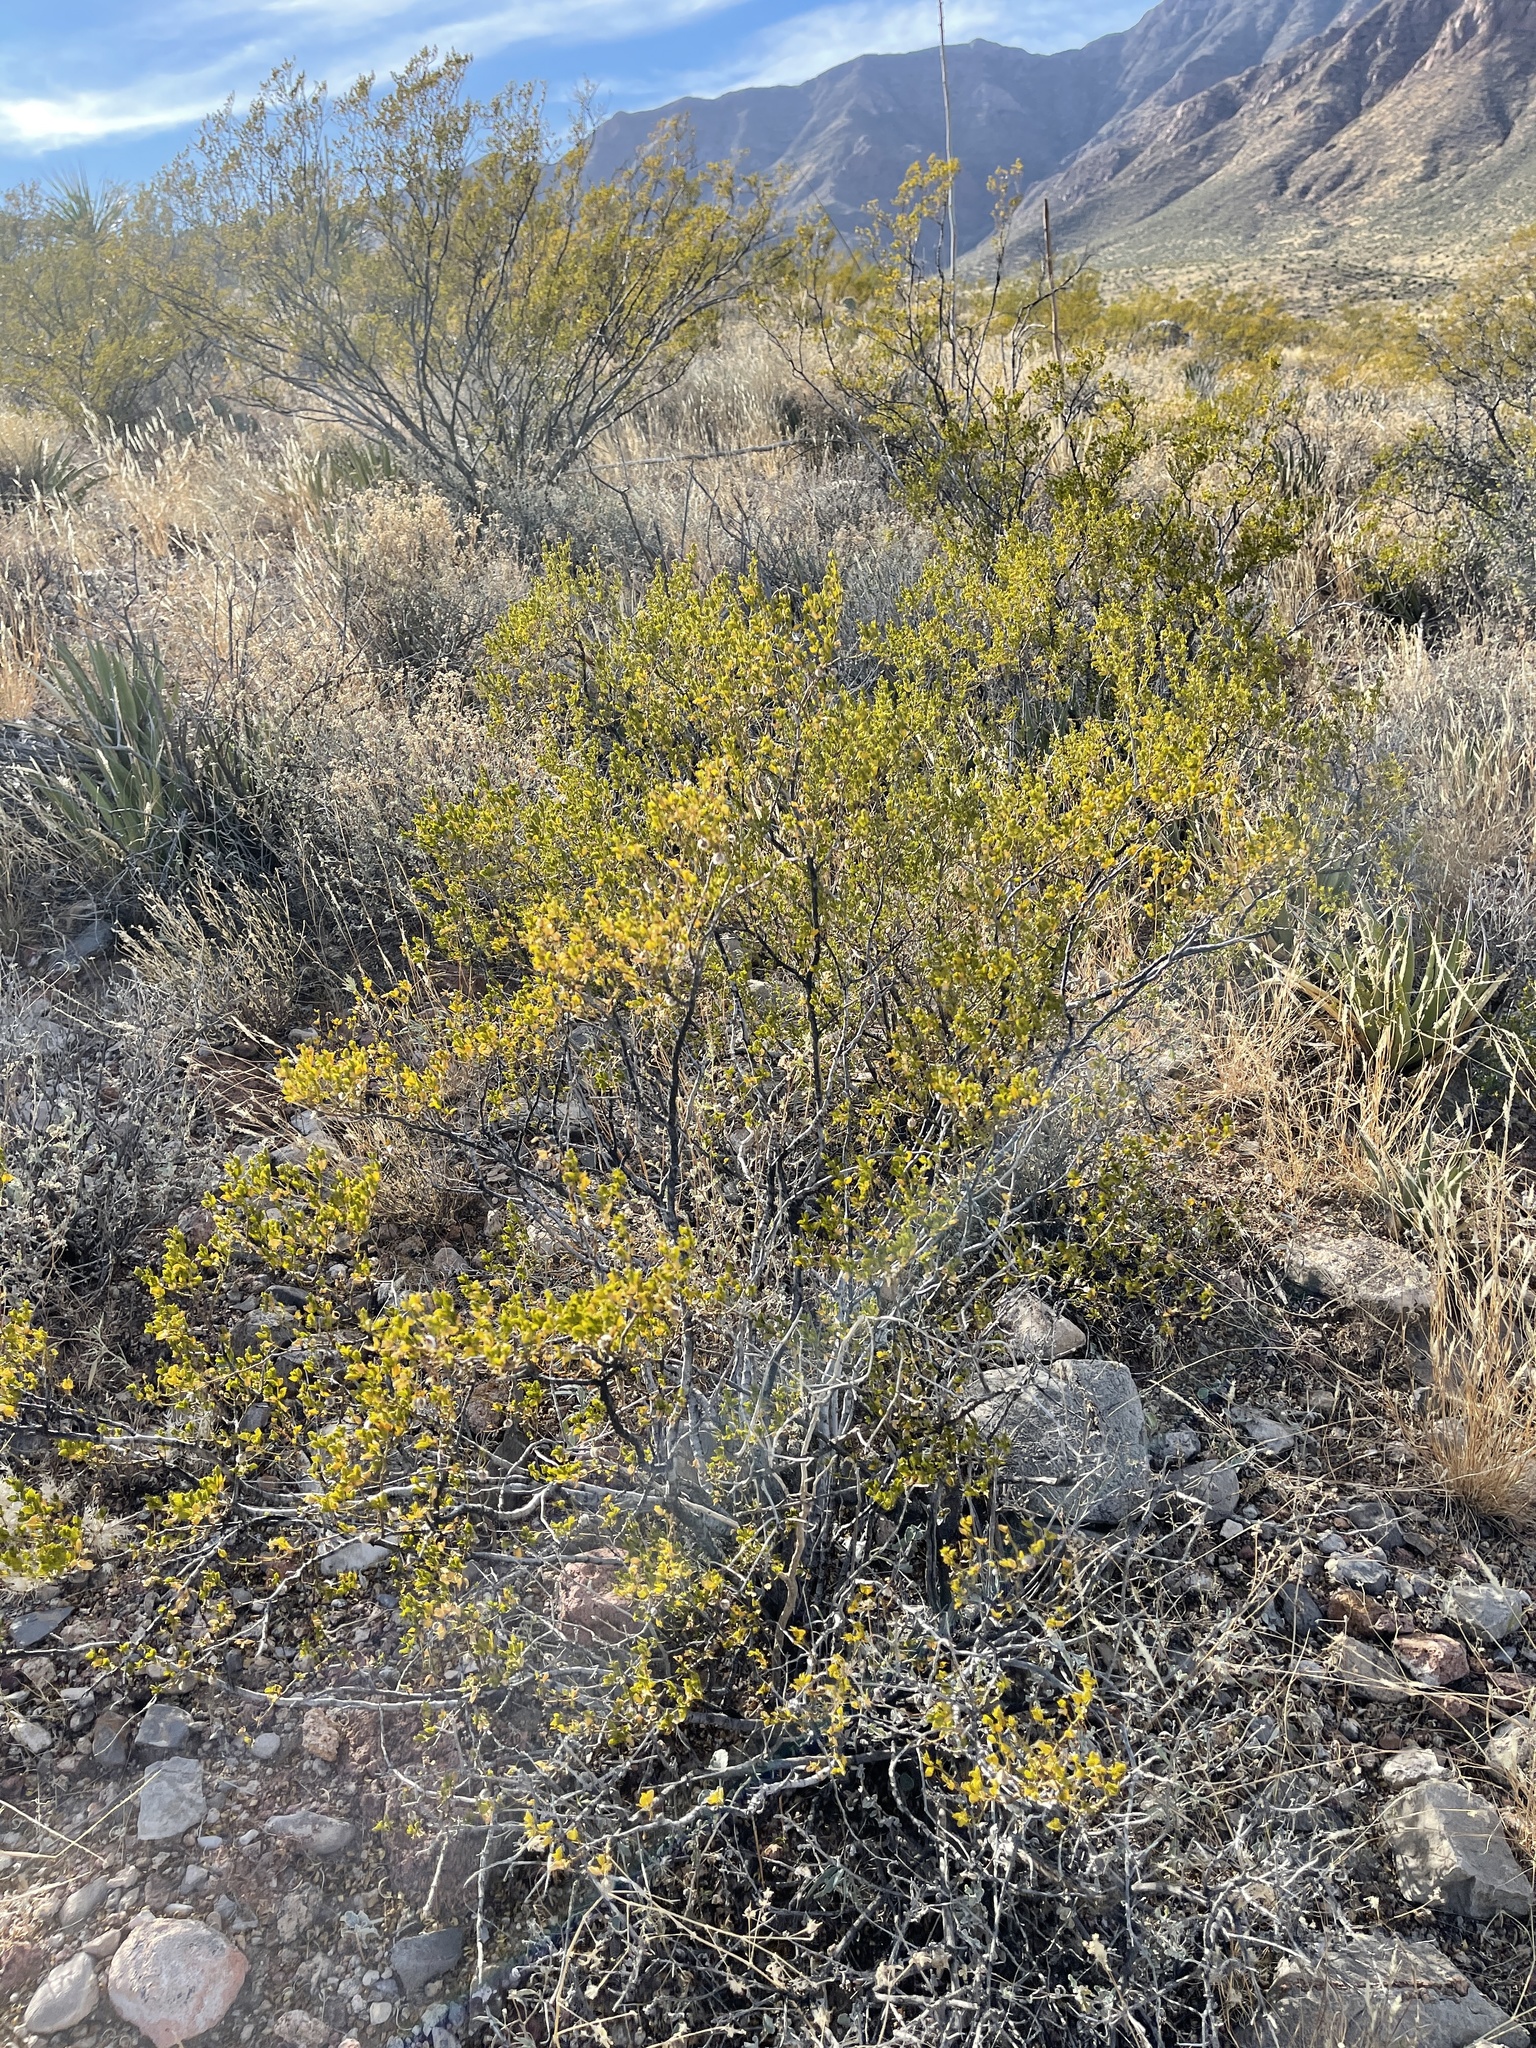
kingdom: Plantae
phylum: Tracheophyta
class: Magnoliopsida
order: Zygophyllales
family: Zygophyllaceae
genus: Larrea
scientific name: Larrea tridentata
